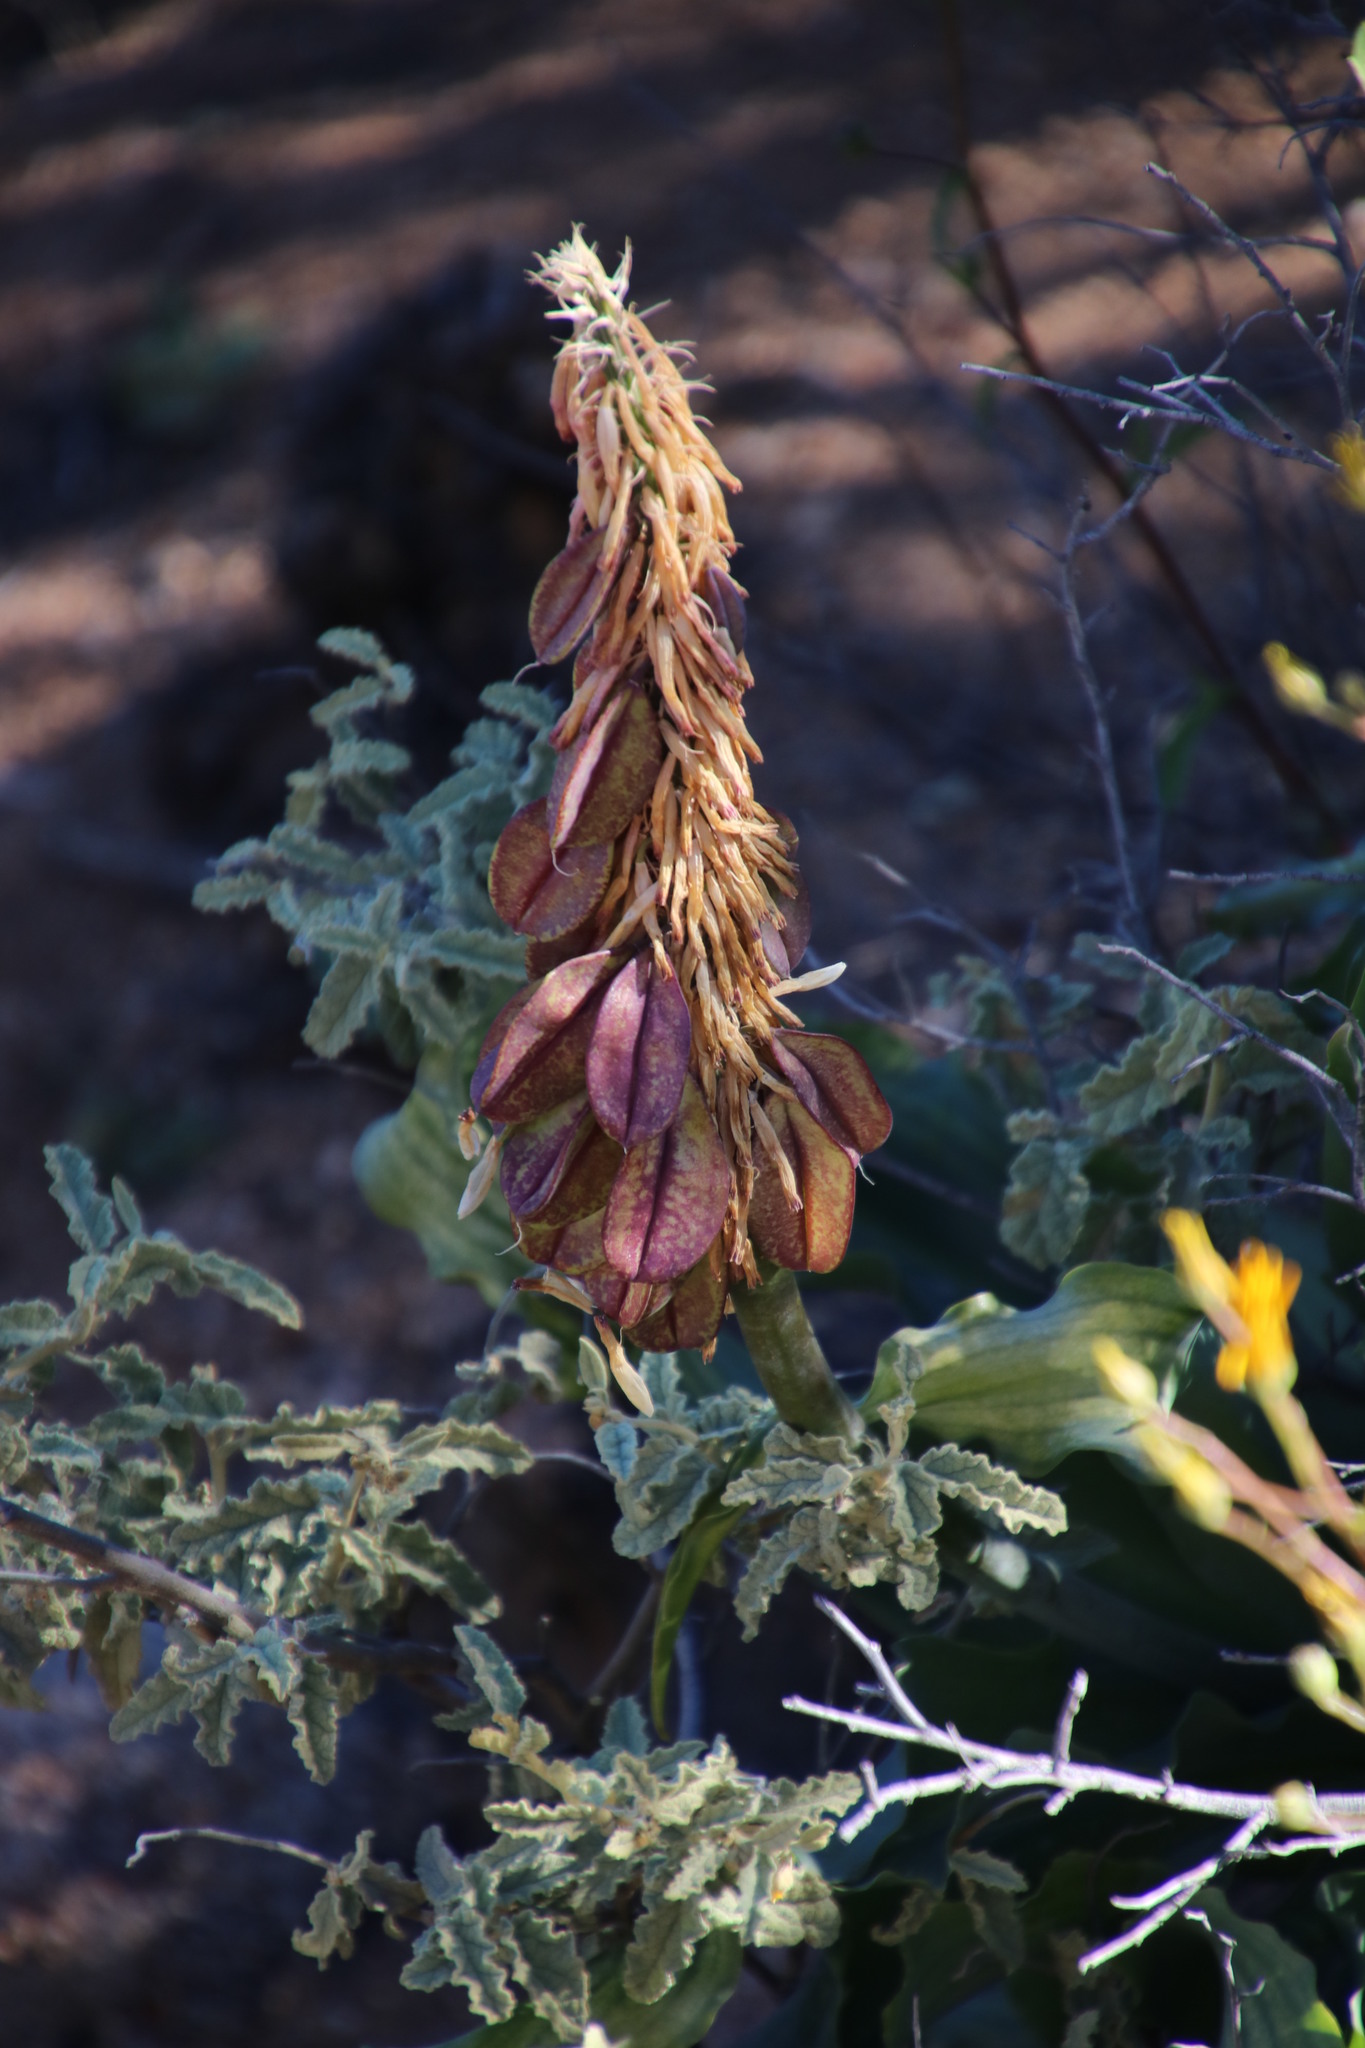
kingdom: Plantae
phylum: Tracheophyta
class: Liliopsida
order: Asparagales
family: Asparagaceae
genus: Veltheimia
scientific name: Veltheimia capensis
